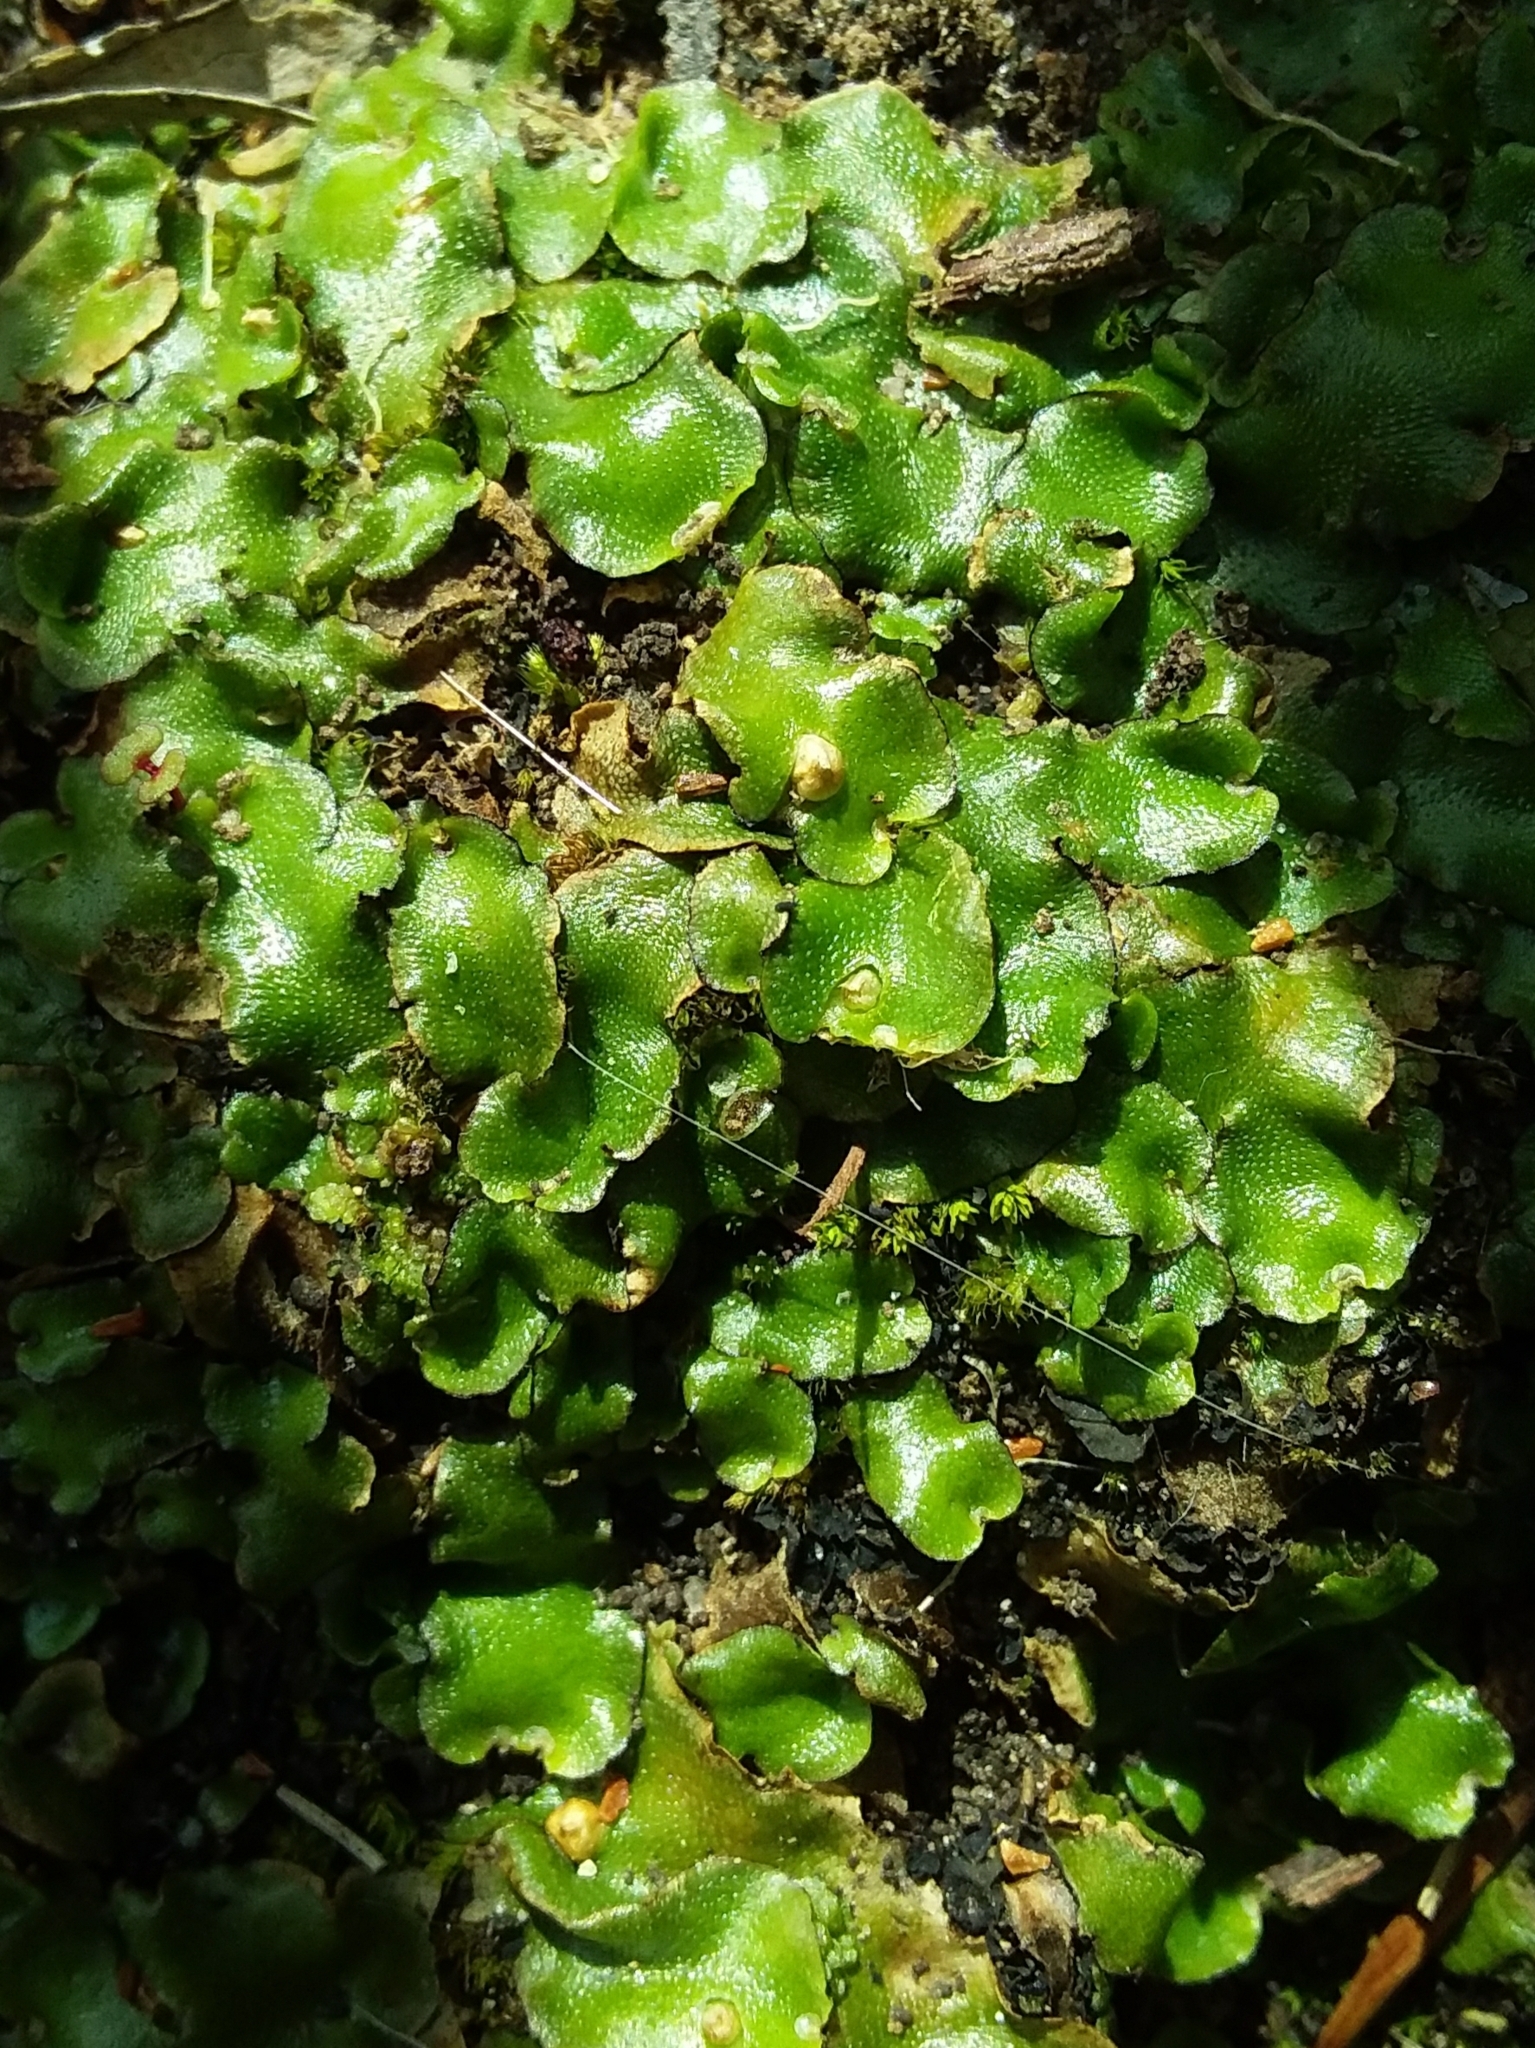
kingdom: Plantae
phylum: Marchantiophyta
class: Marchantiopsida
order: Lunulariales
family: Lunulariaceae
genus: Lunularia
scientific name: Lunularia cruciata
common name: Crescent-cup liverwort
